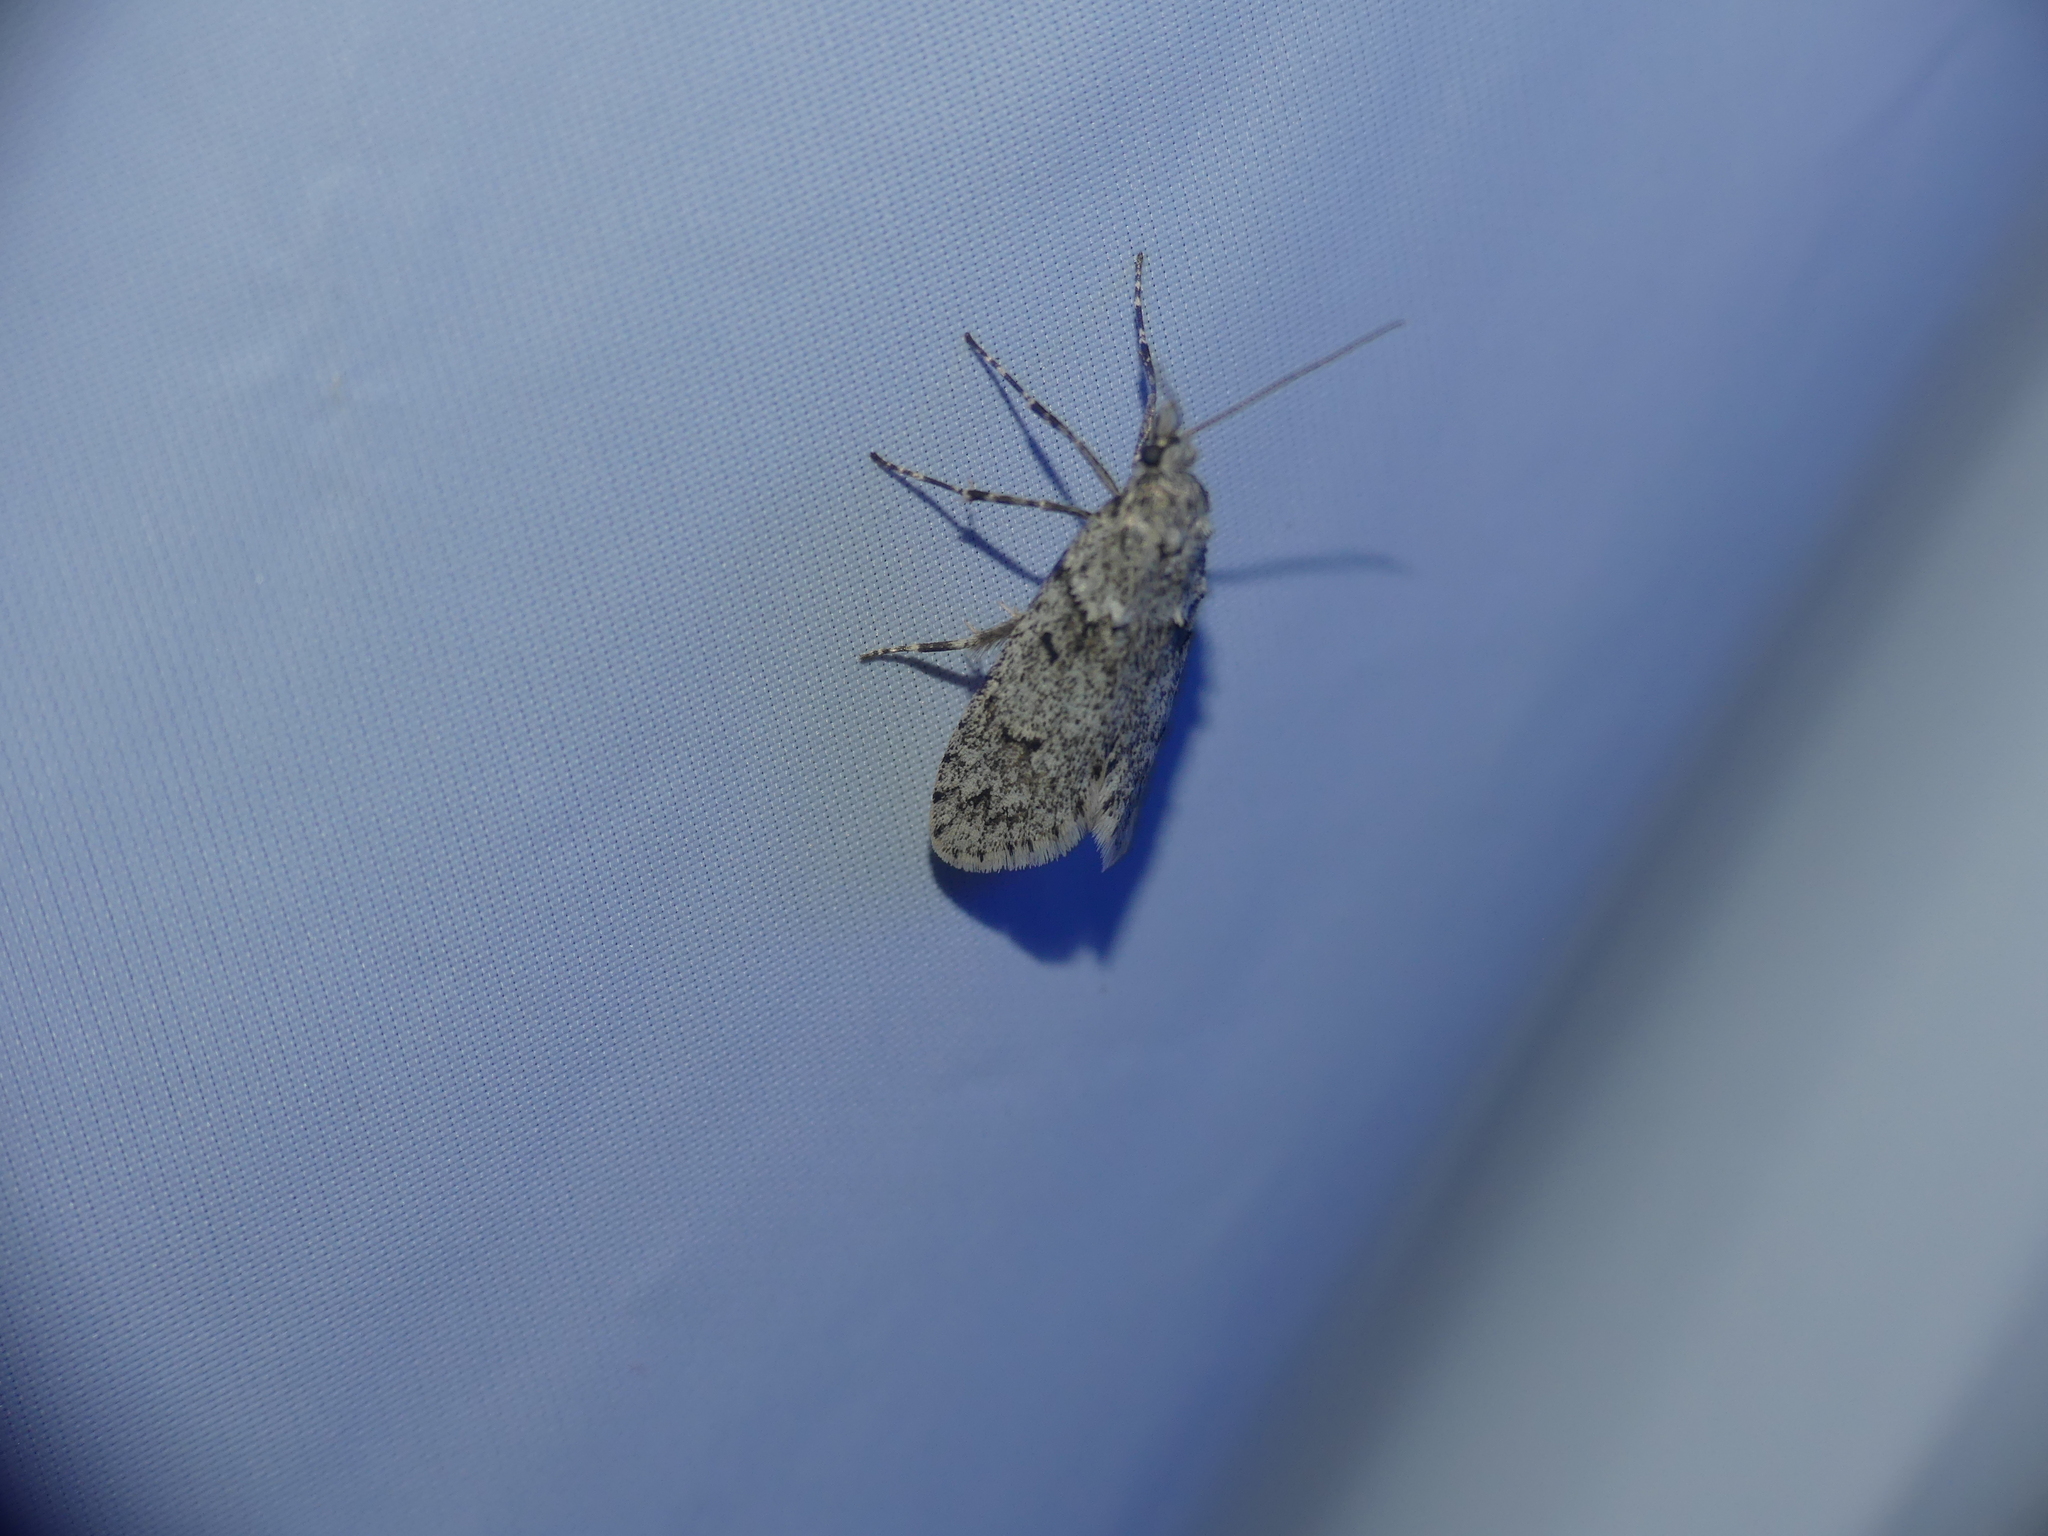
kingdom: Animalia
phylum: Arthropoda
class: Insecta
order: Lepidoptera
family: Lypusidae
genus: Diurnea
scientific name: Diurnea fagella
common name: March tubic
